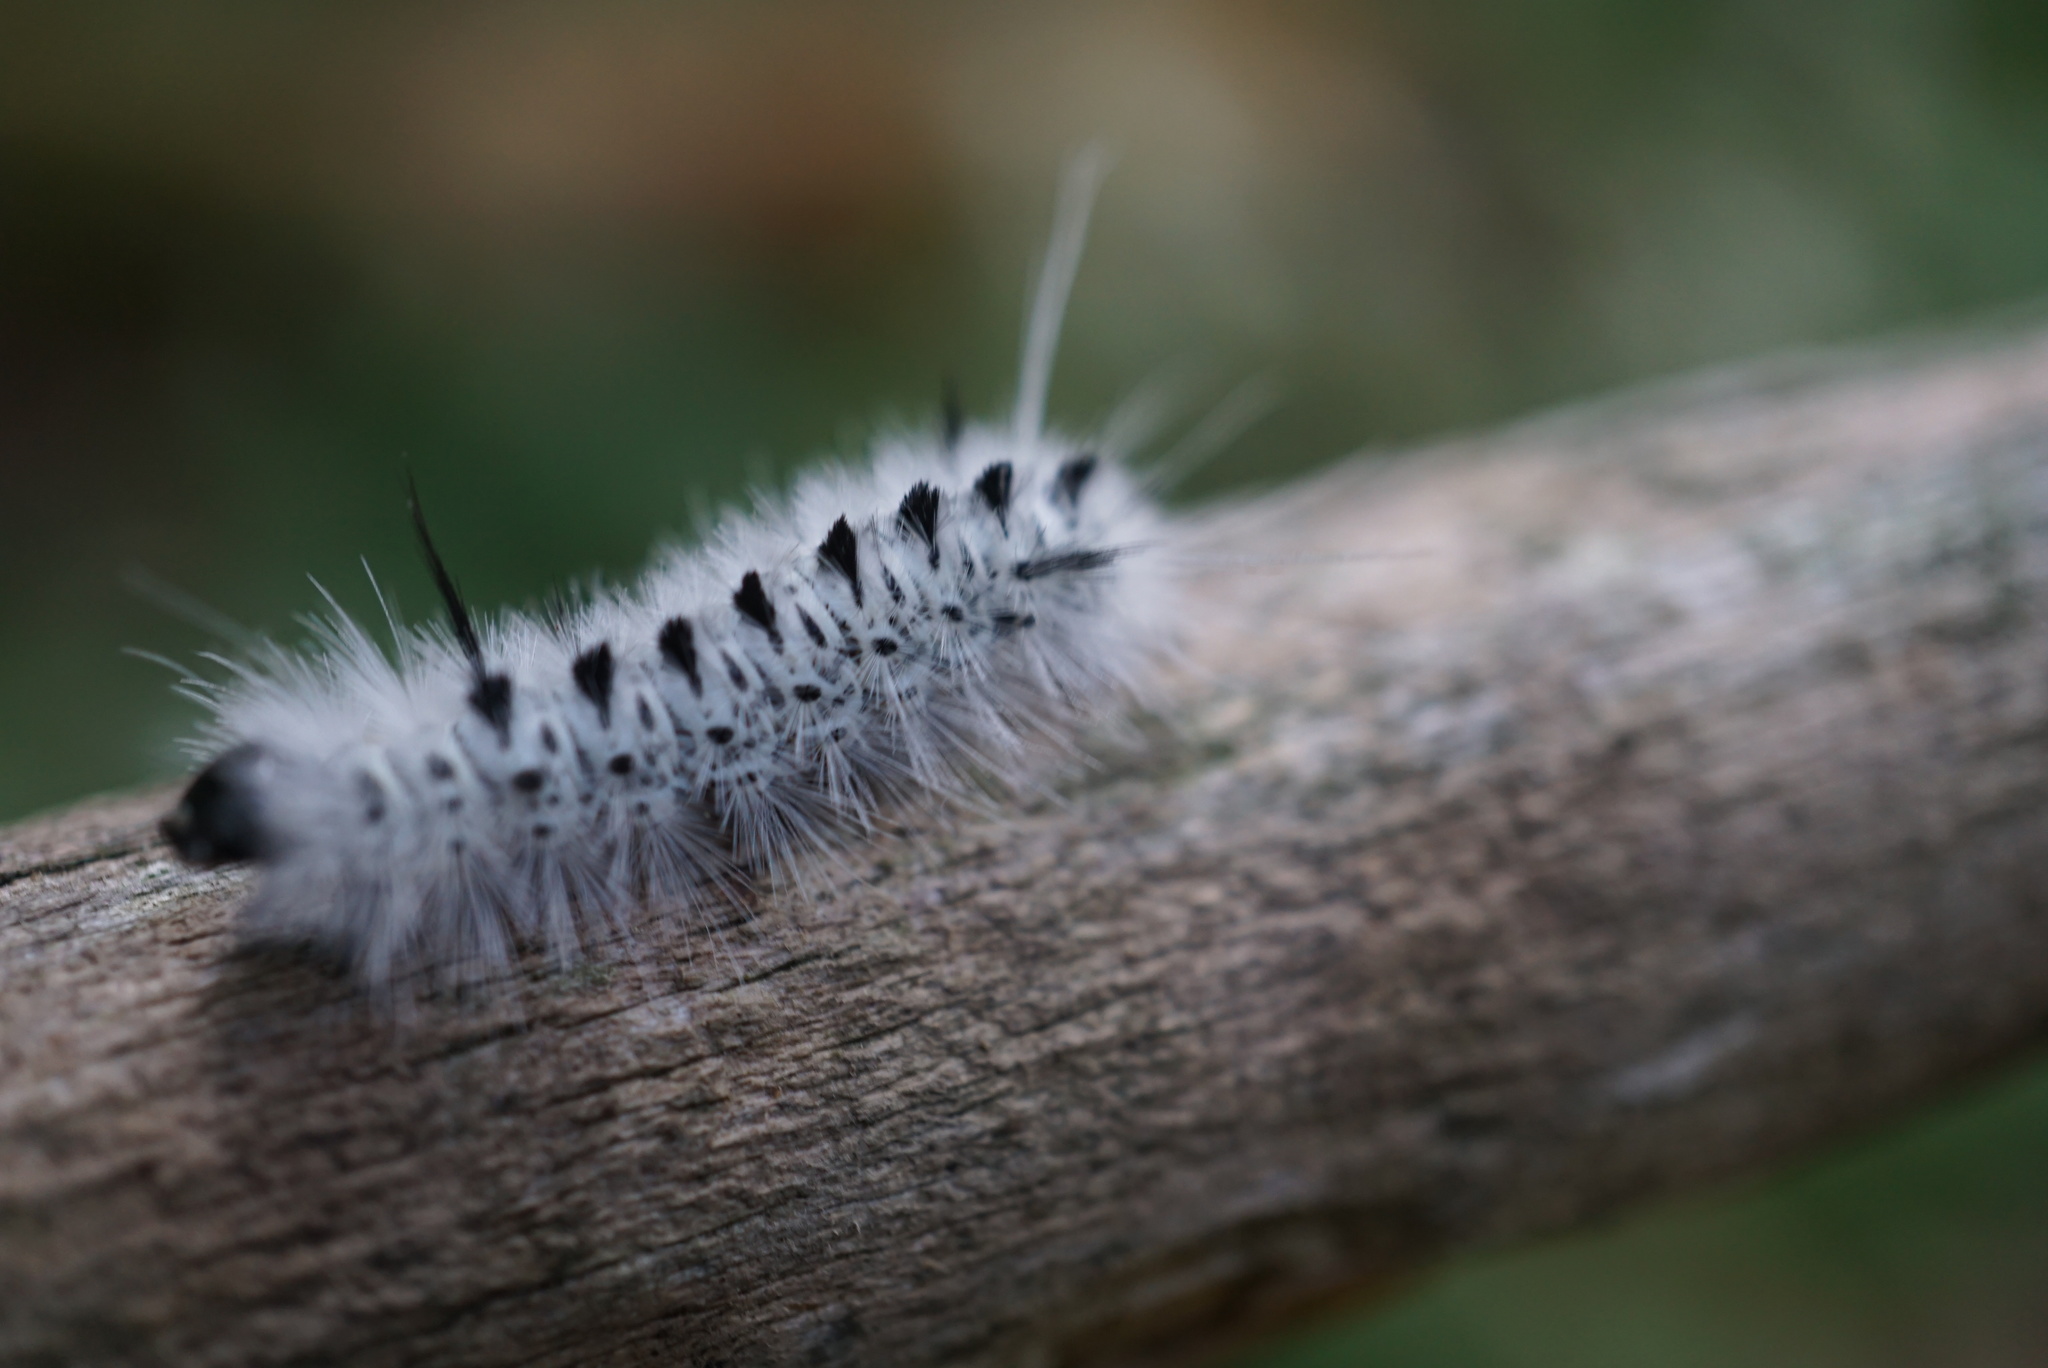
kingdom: Animalia
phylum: Arthropoda
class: Insecta
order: Lepidoptera
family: Erebidae
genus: Lophocampa
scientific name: Lophocampa caryae
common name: Hickory tussock moth
